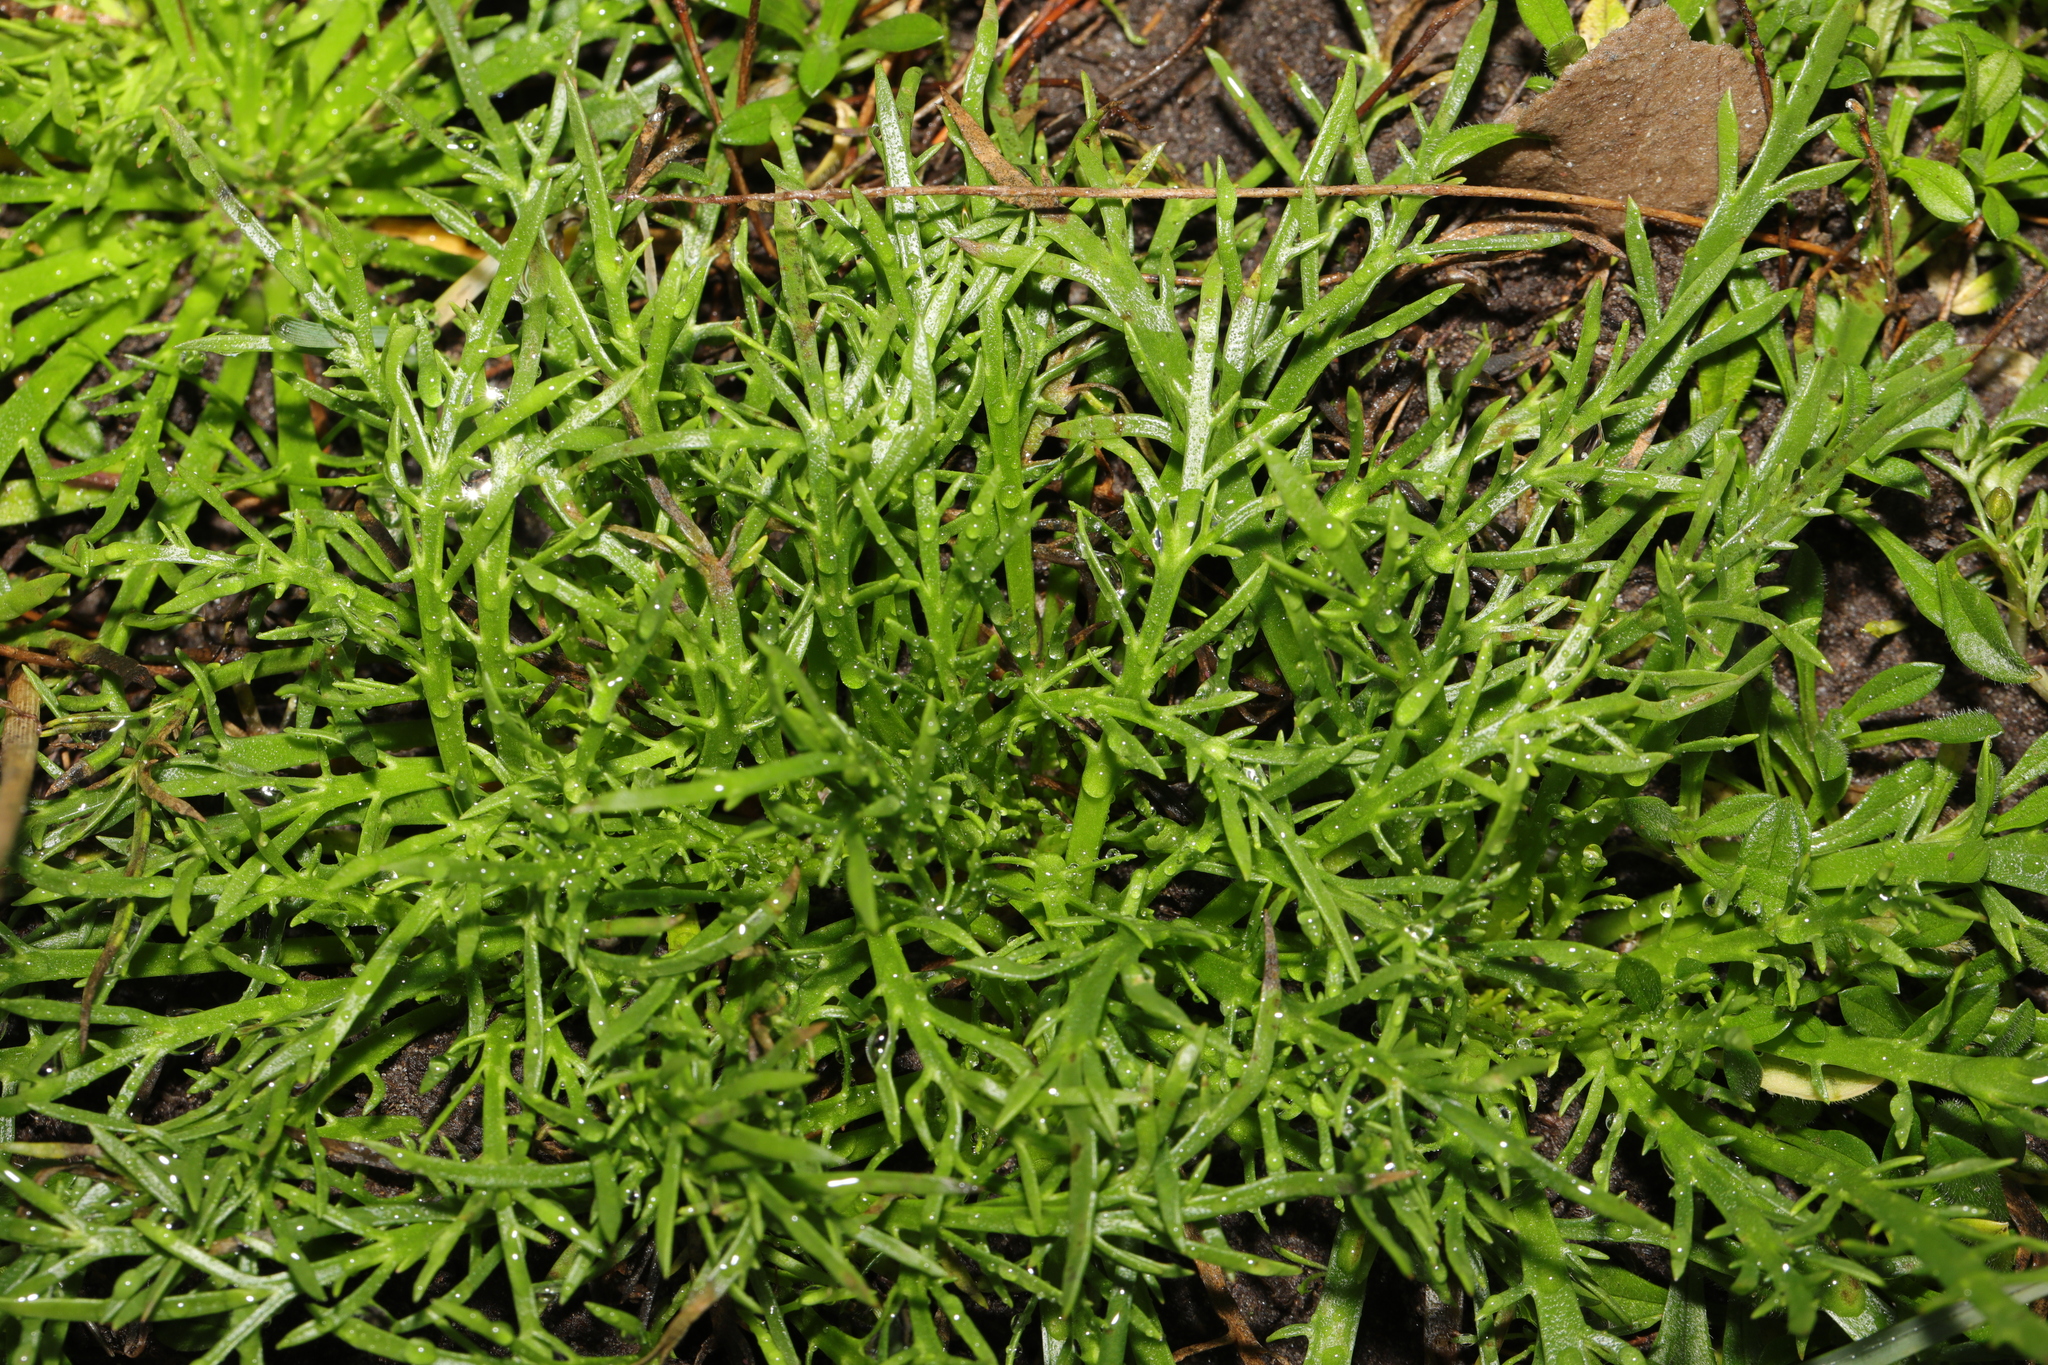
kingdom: Plantae
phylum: Tracheophyta
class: Magnoliopsida
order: Lamiales
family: Plantaginaceae
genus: Plantago
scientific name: Plantago coronopus
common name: Buck's-horn plantain
